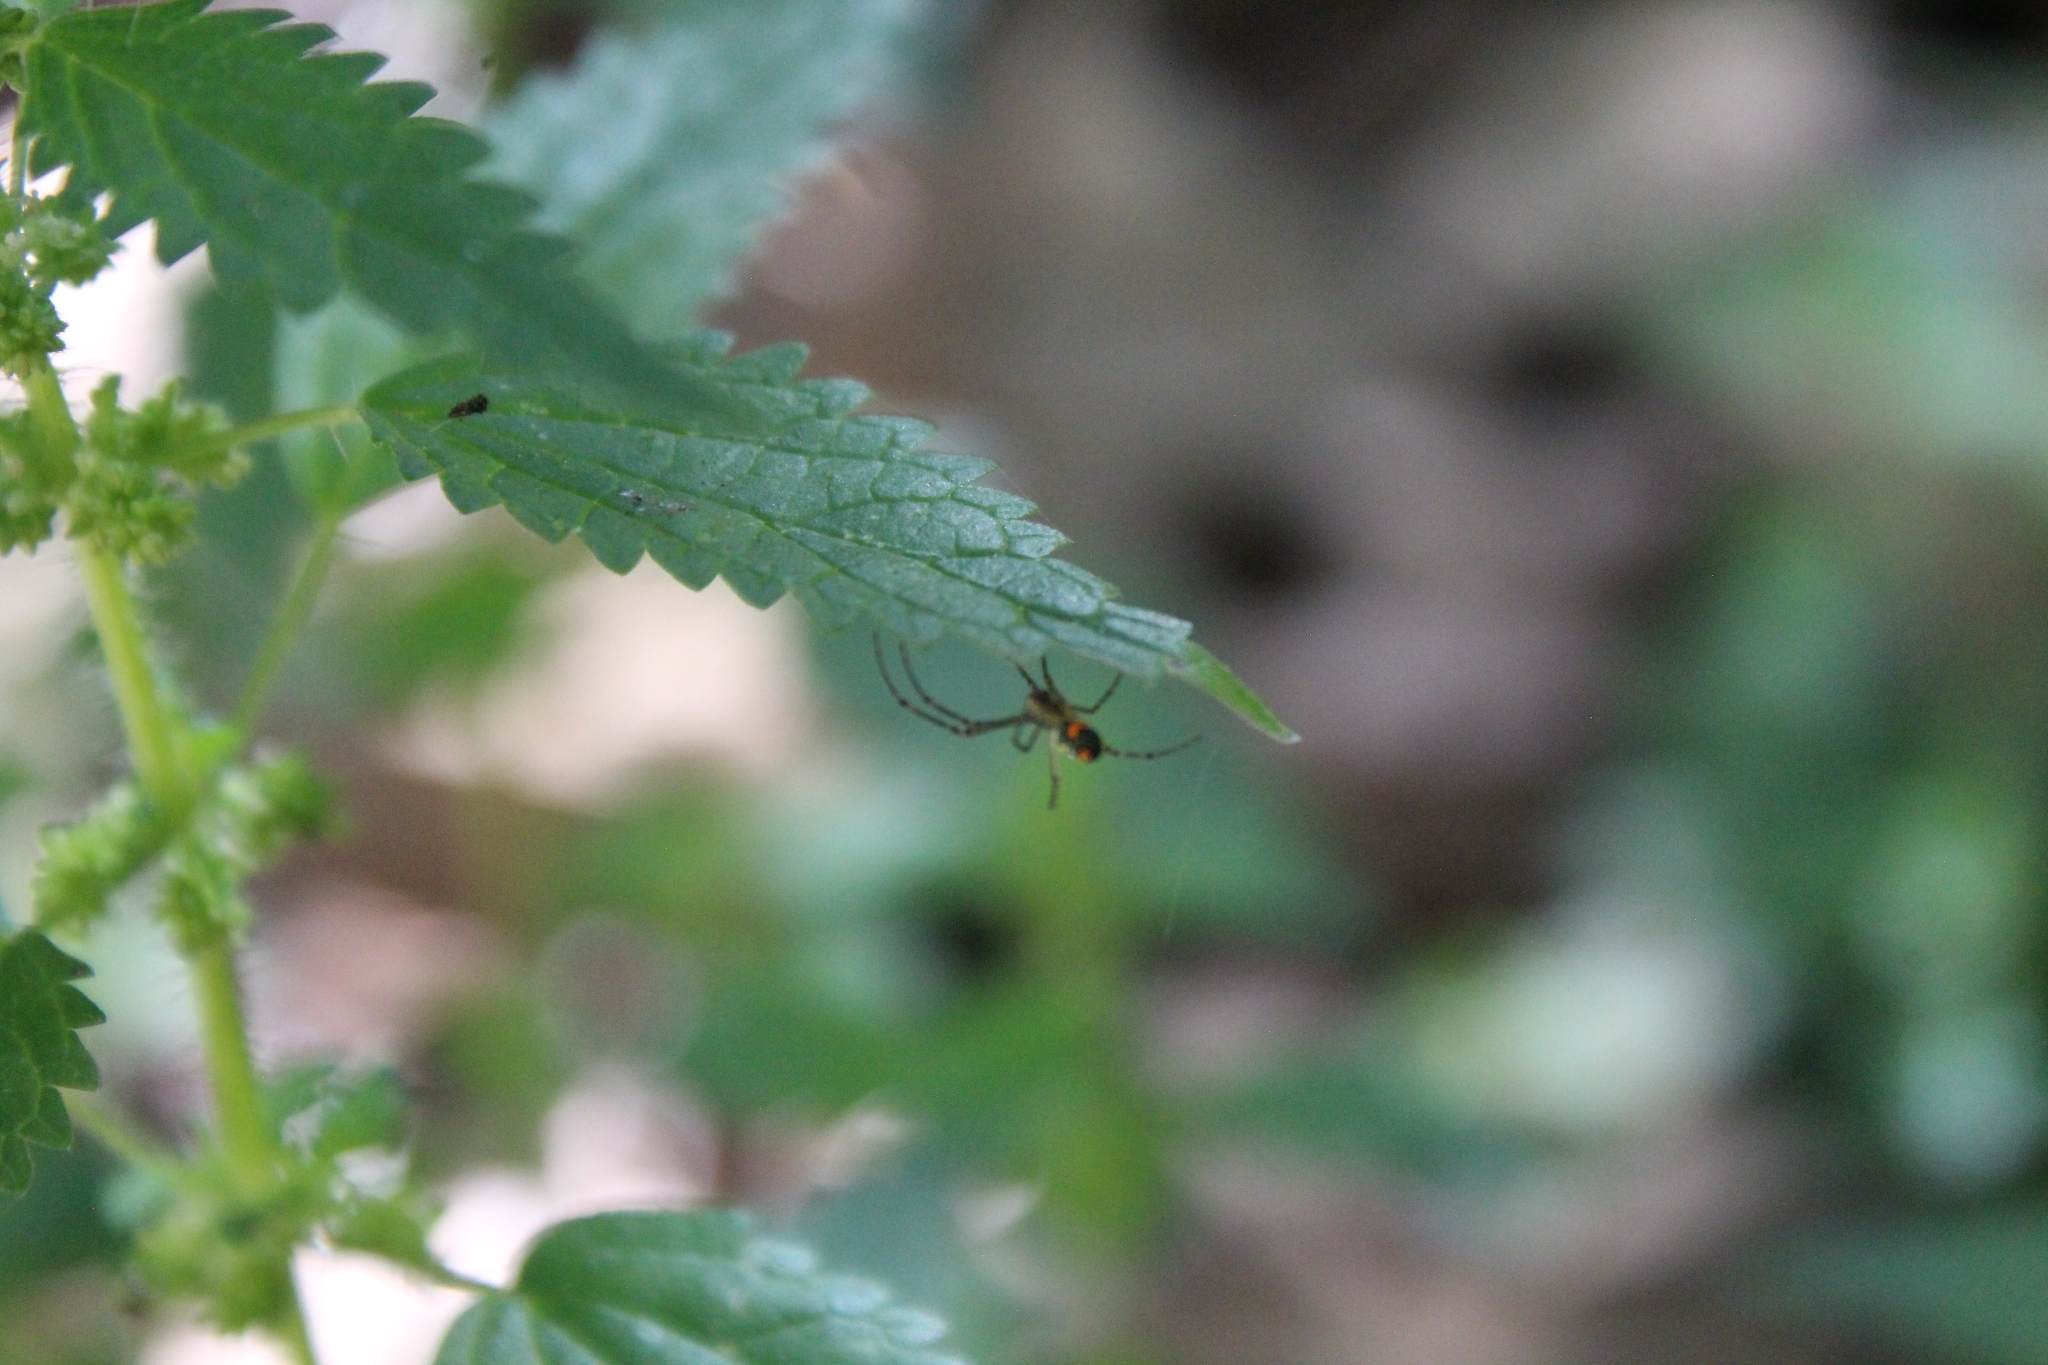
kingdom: Animalia
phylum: Arthropoda
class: Arachnida
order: Araneae
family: Tetragnathidae
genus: Leucauge
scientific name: Leucauge argyrobapta
